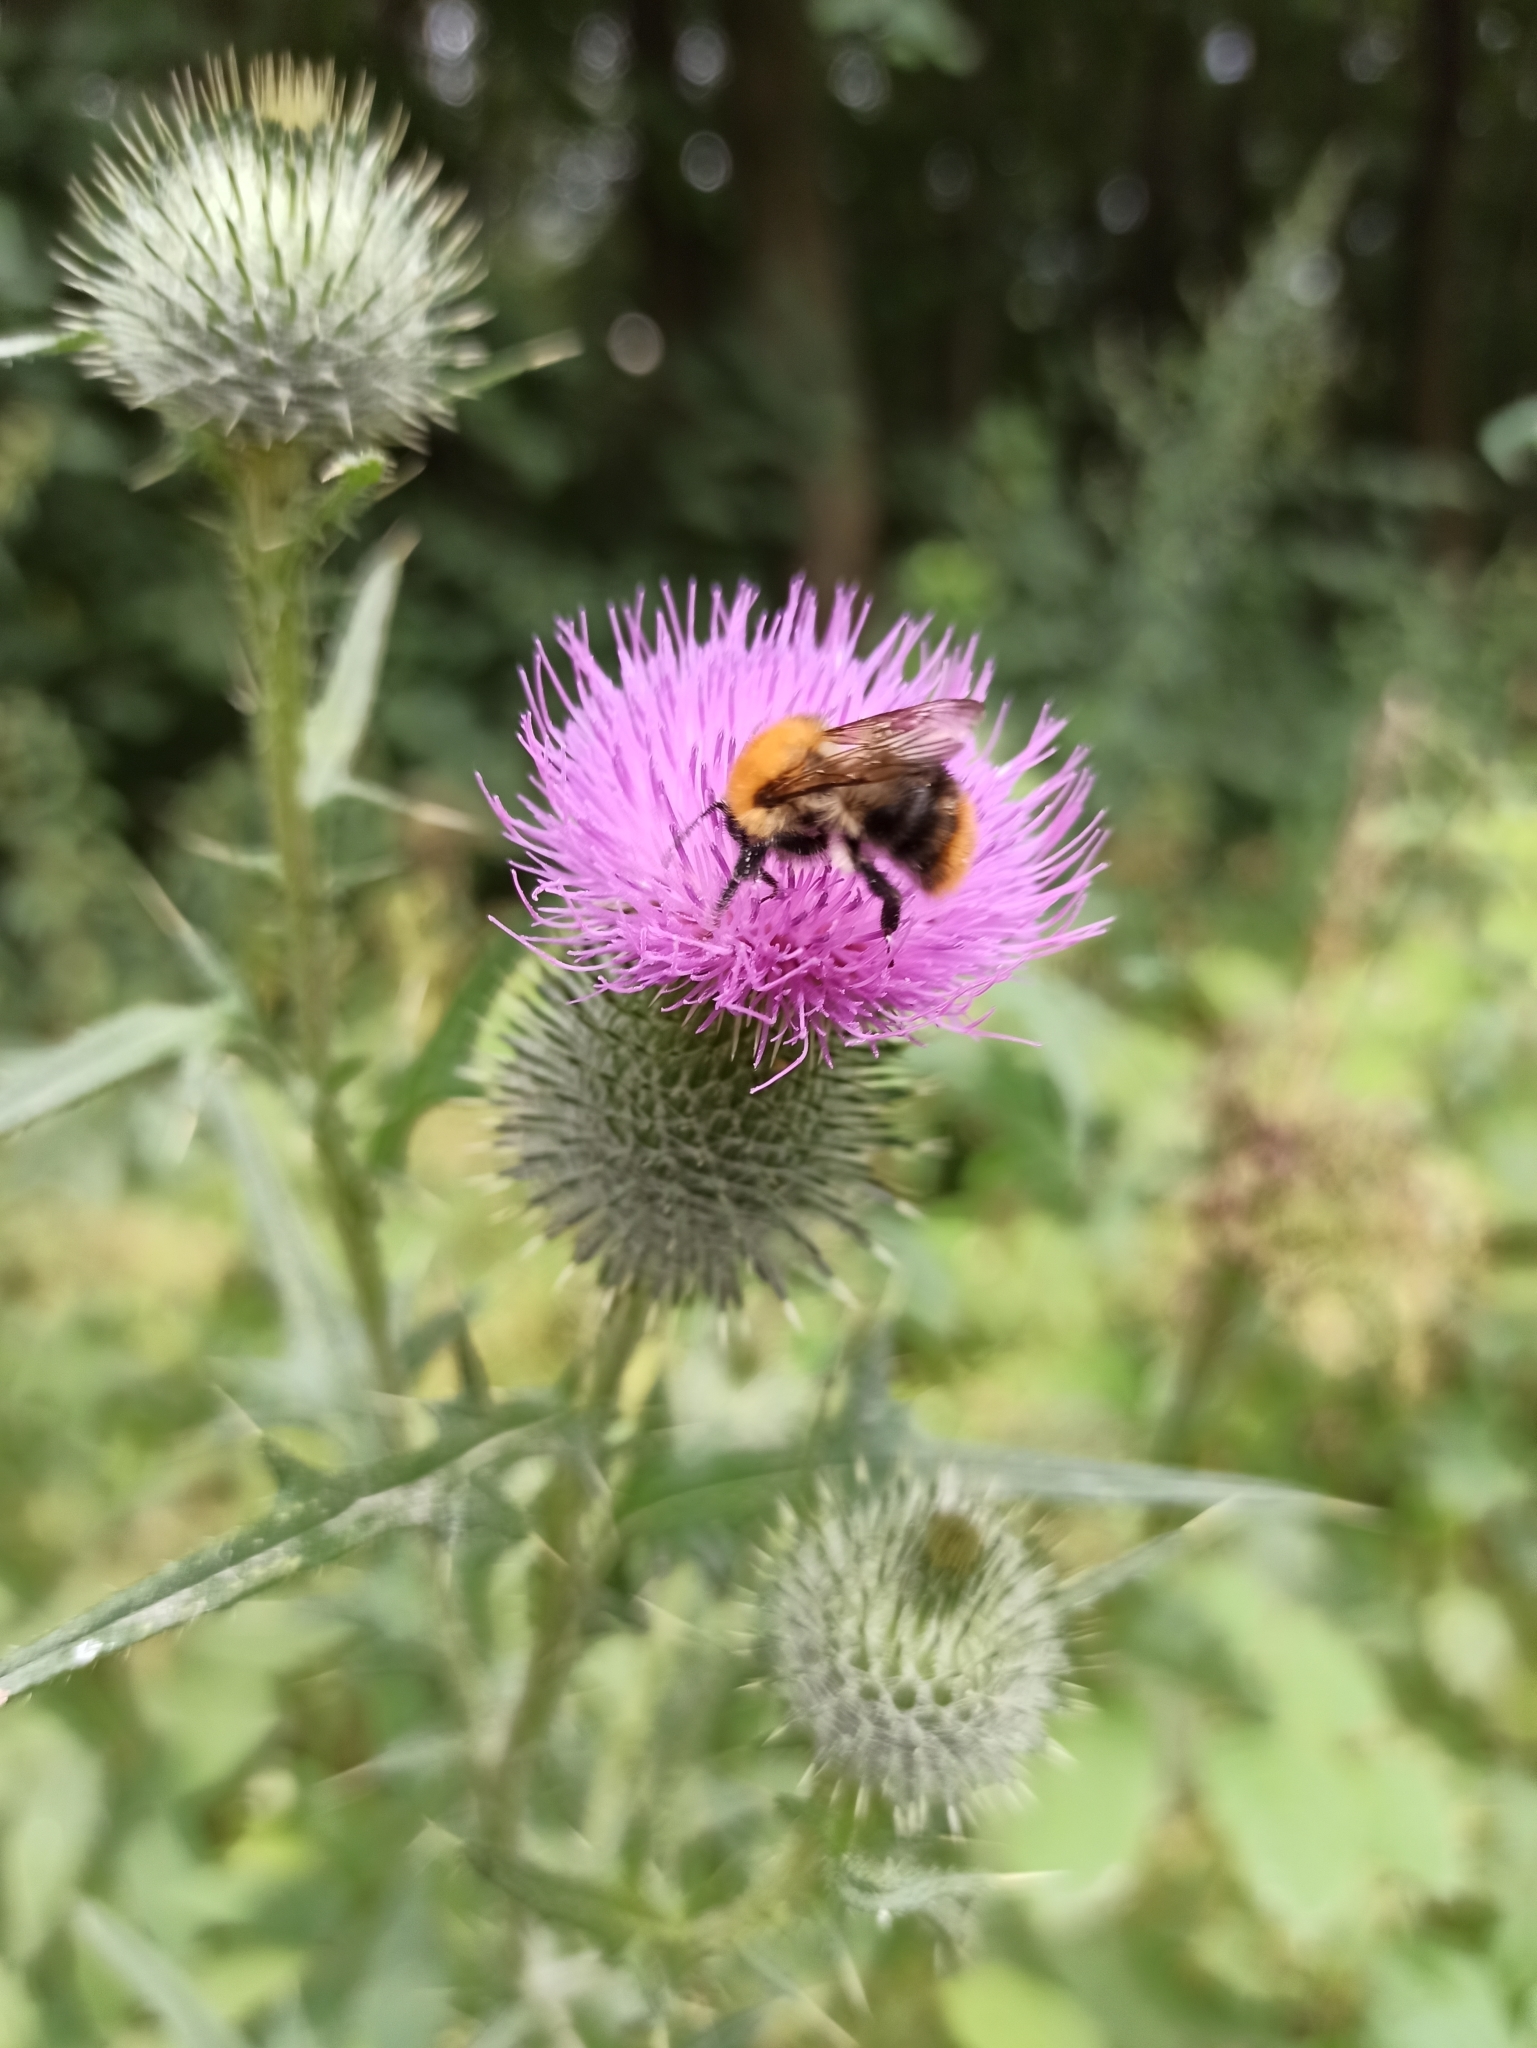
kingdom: Animalia
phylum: Arthropoda
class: Insecta
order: Hymenoptera
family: Apidae
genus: Bombus
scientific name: Bombus pascuorum
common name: Common carder bee
